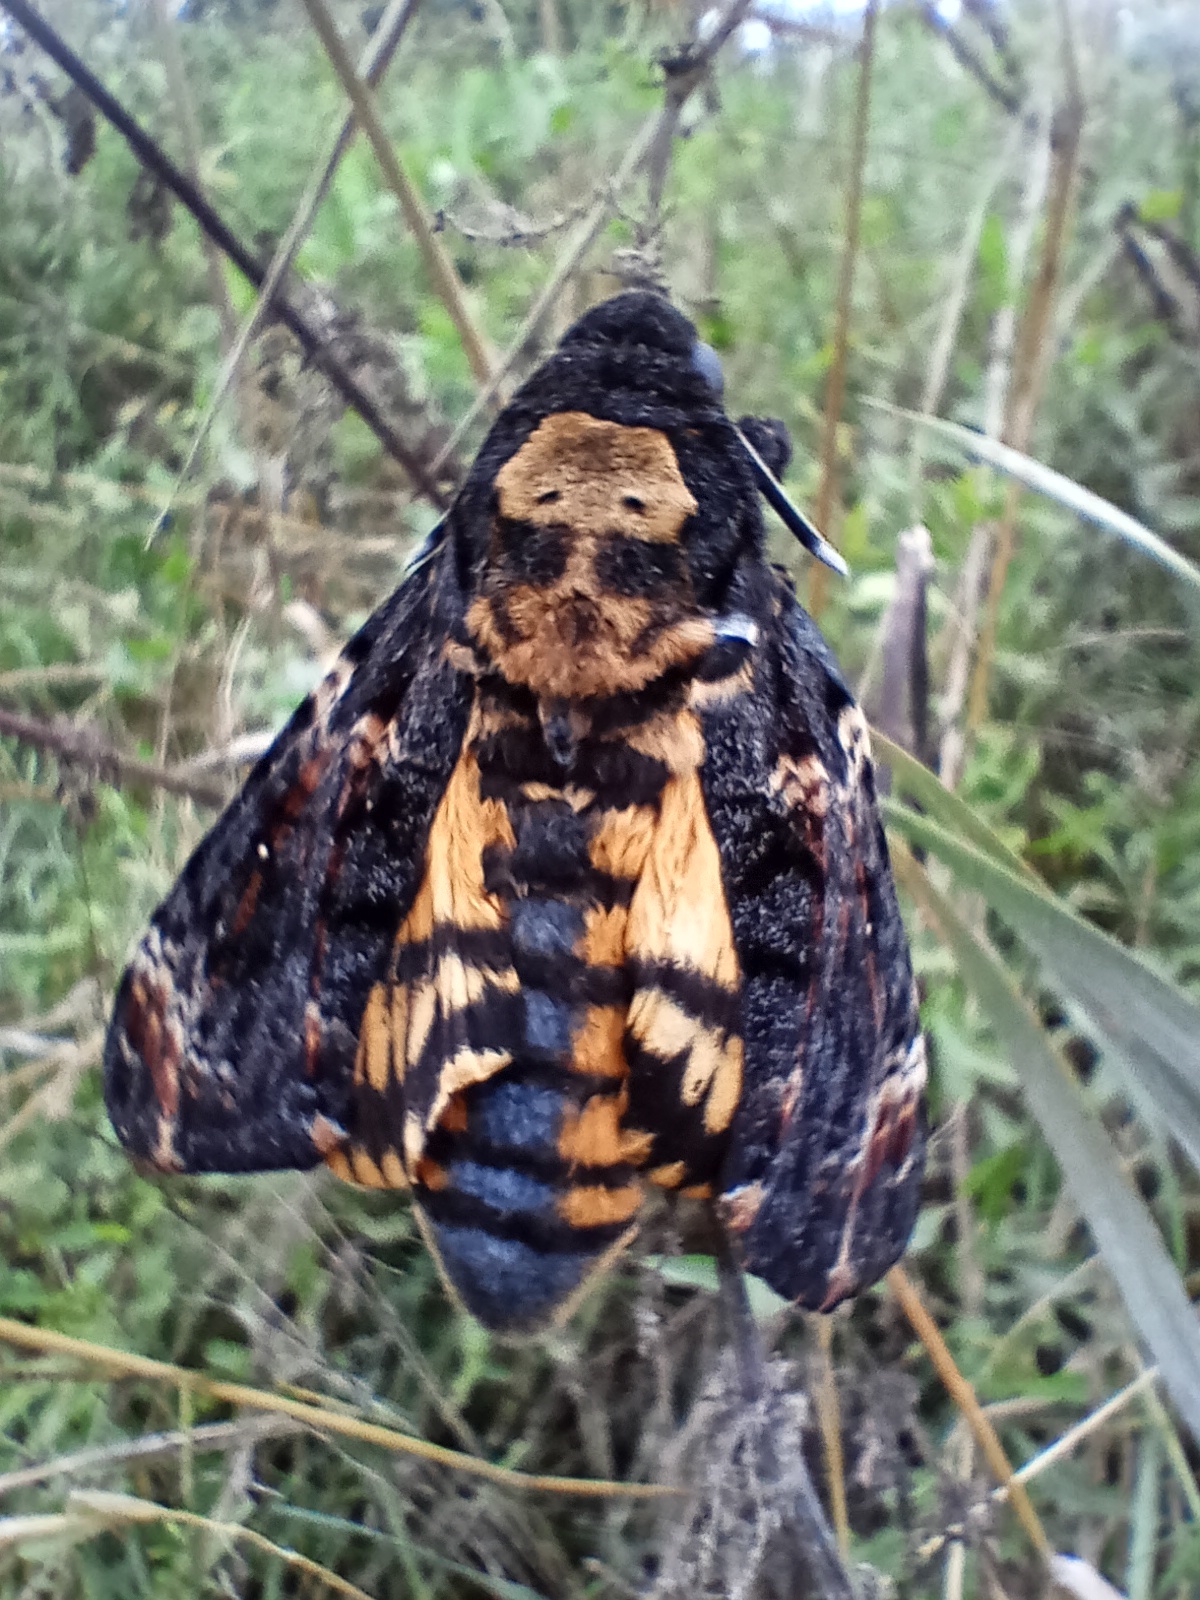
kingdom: Animalia
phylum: Arthropoda
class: Insecta
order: Lepidoptera
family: Sphingidae
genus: Acherontia
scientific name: Acherontia atropos
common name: Death's-head hawk moth
